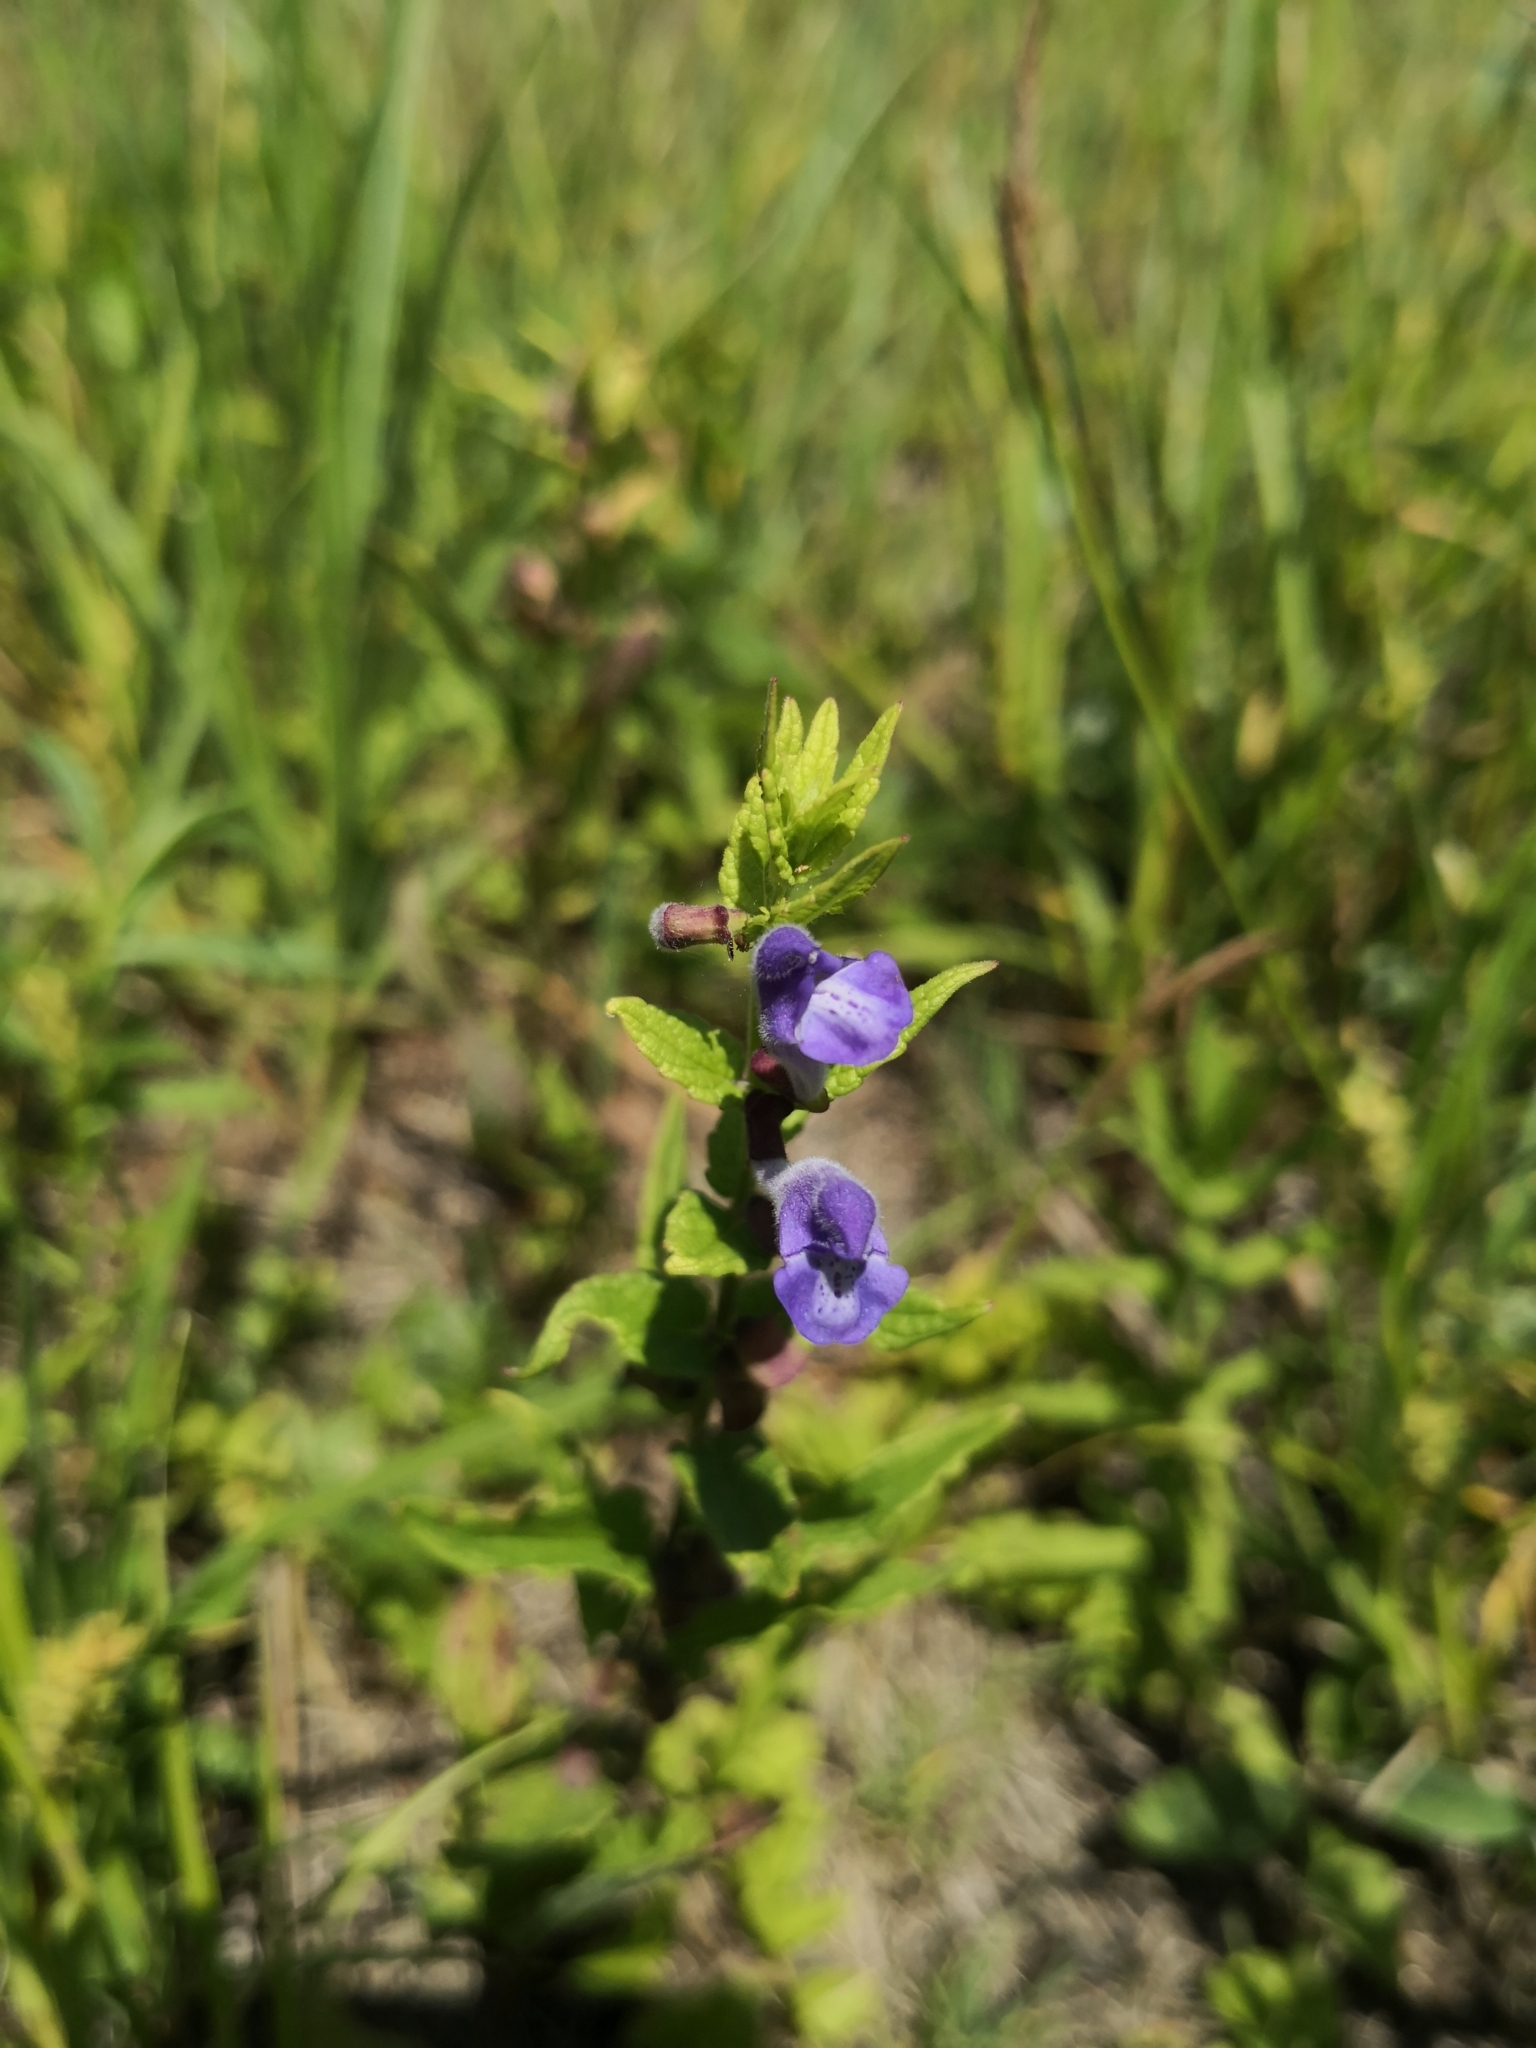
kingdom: Plantae
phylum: Tracheophyta
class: Magnoliopsida
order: Lamiales
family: Lamiaceae
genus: Scutellaria
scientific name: Scutellaria galericulata
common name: Skullcap
